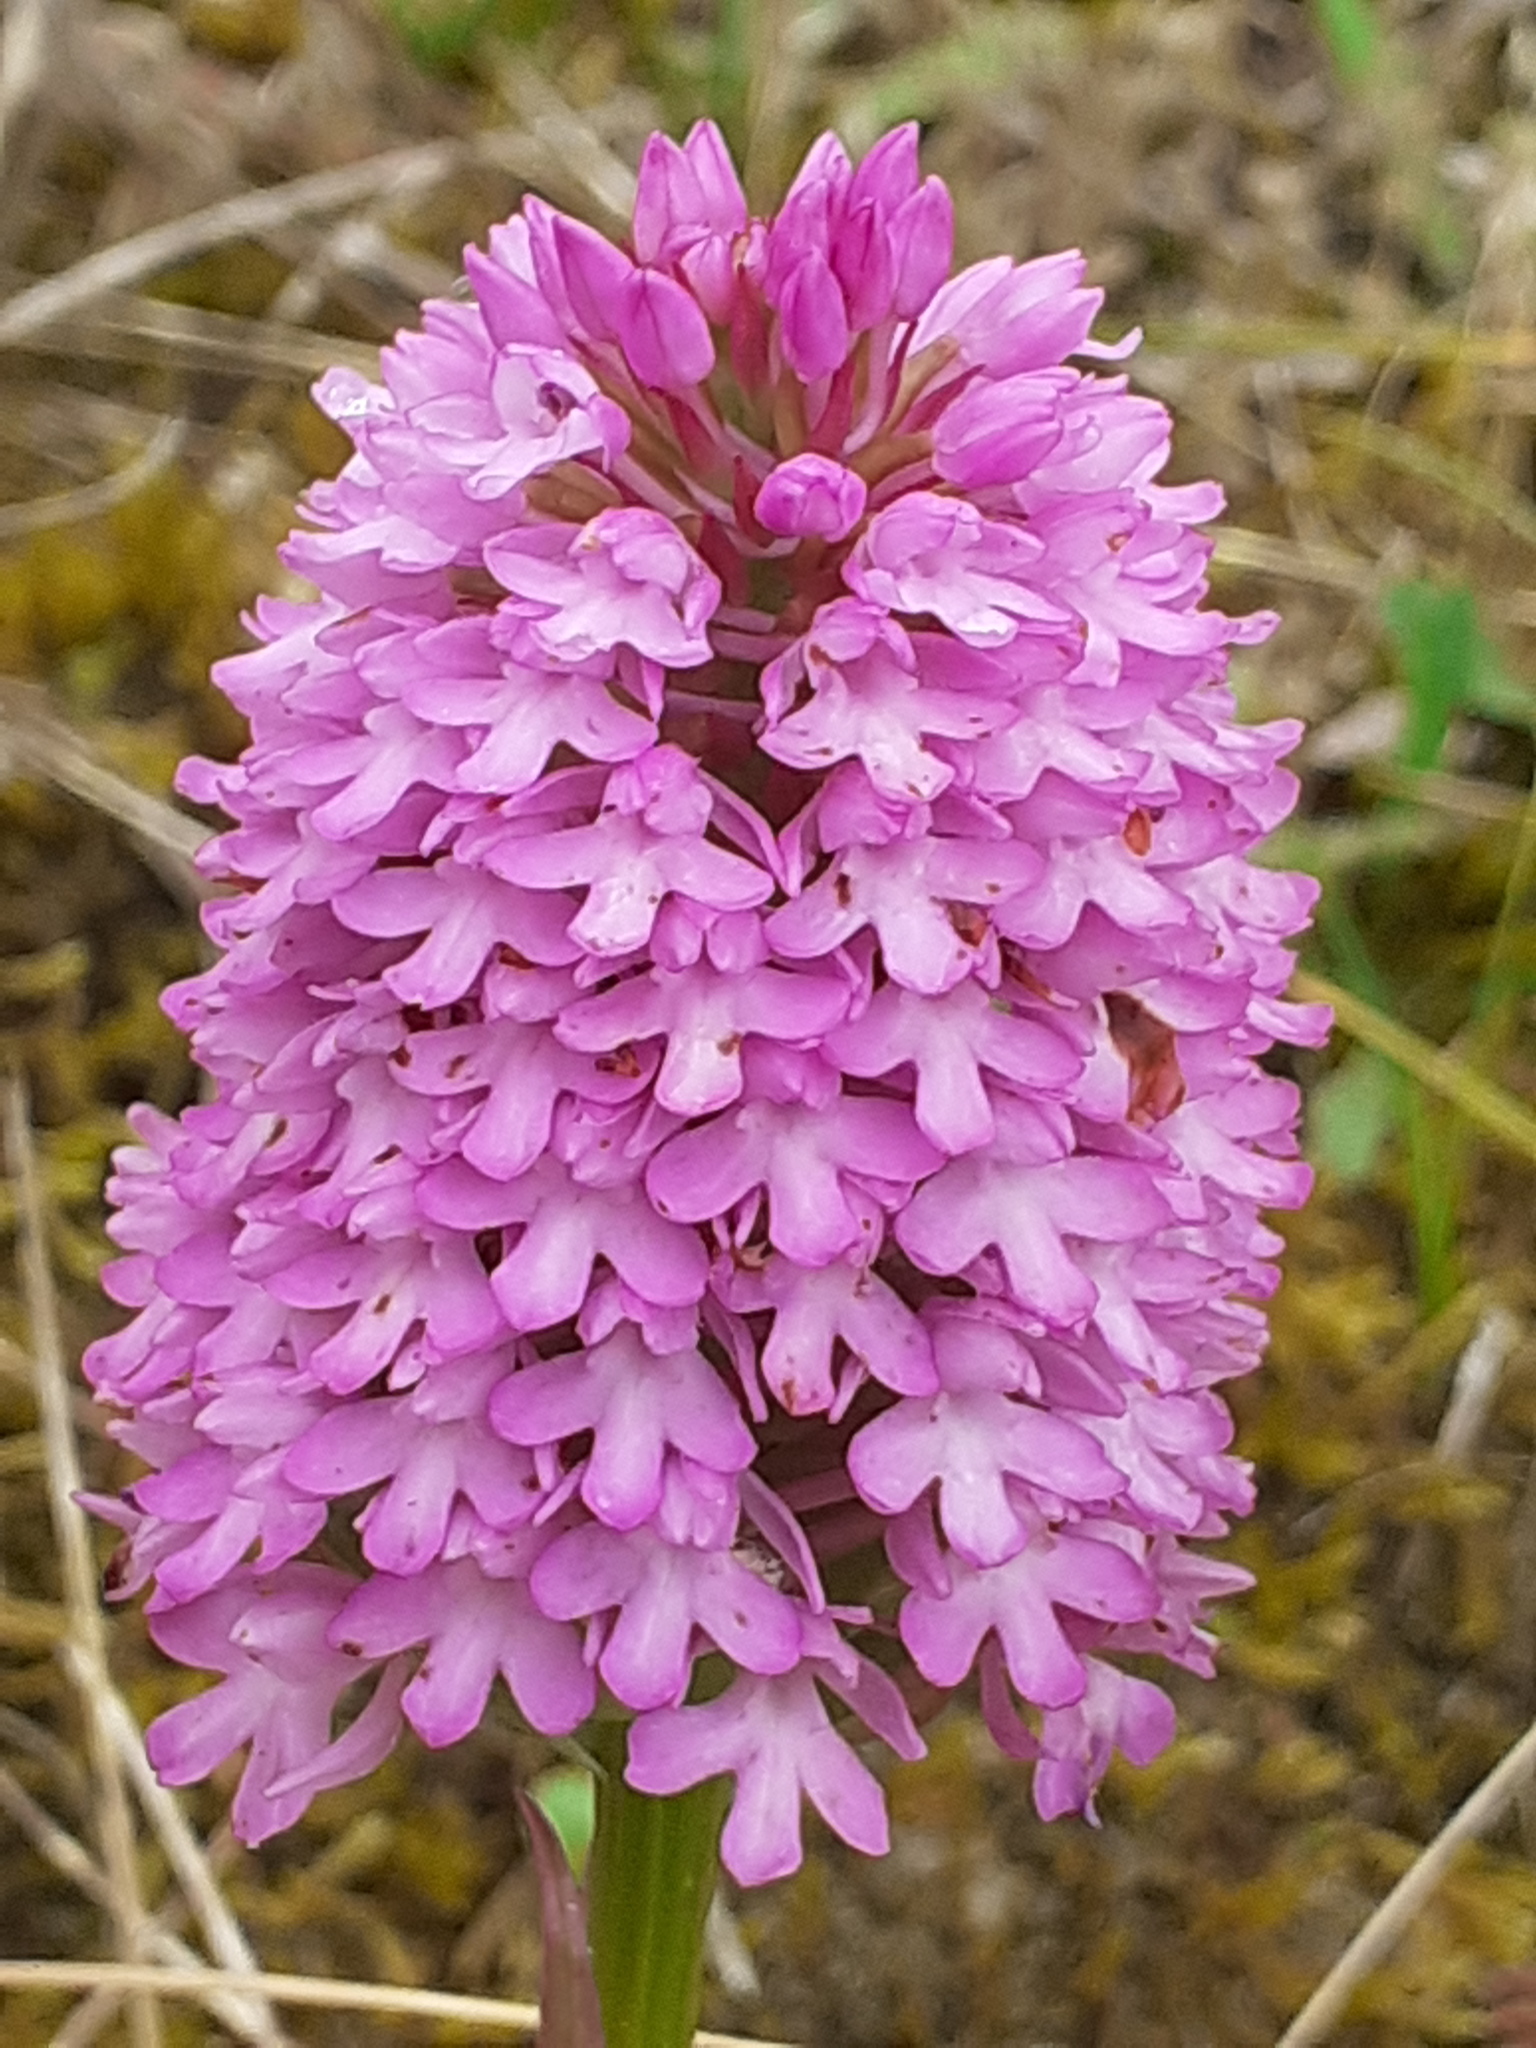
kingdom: Plantae
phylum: Tracheophyta
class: Liliopsida
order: Asparagales
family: Orchidaceae
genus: Anacamptis
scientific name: Anacamptis pyramidalis
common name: Pyramidal orchid
